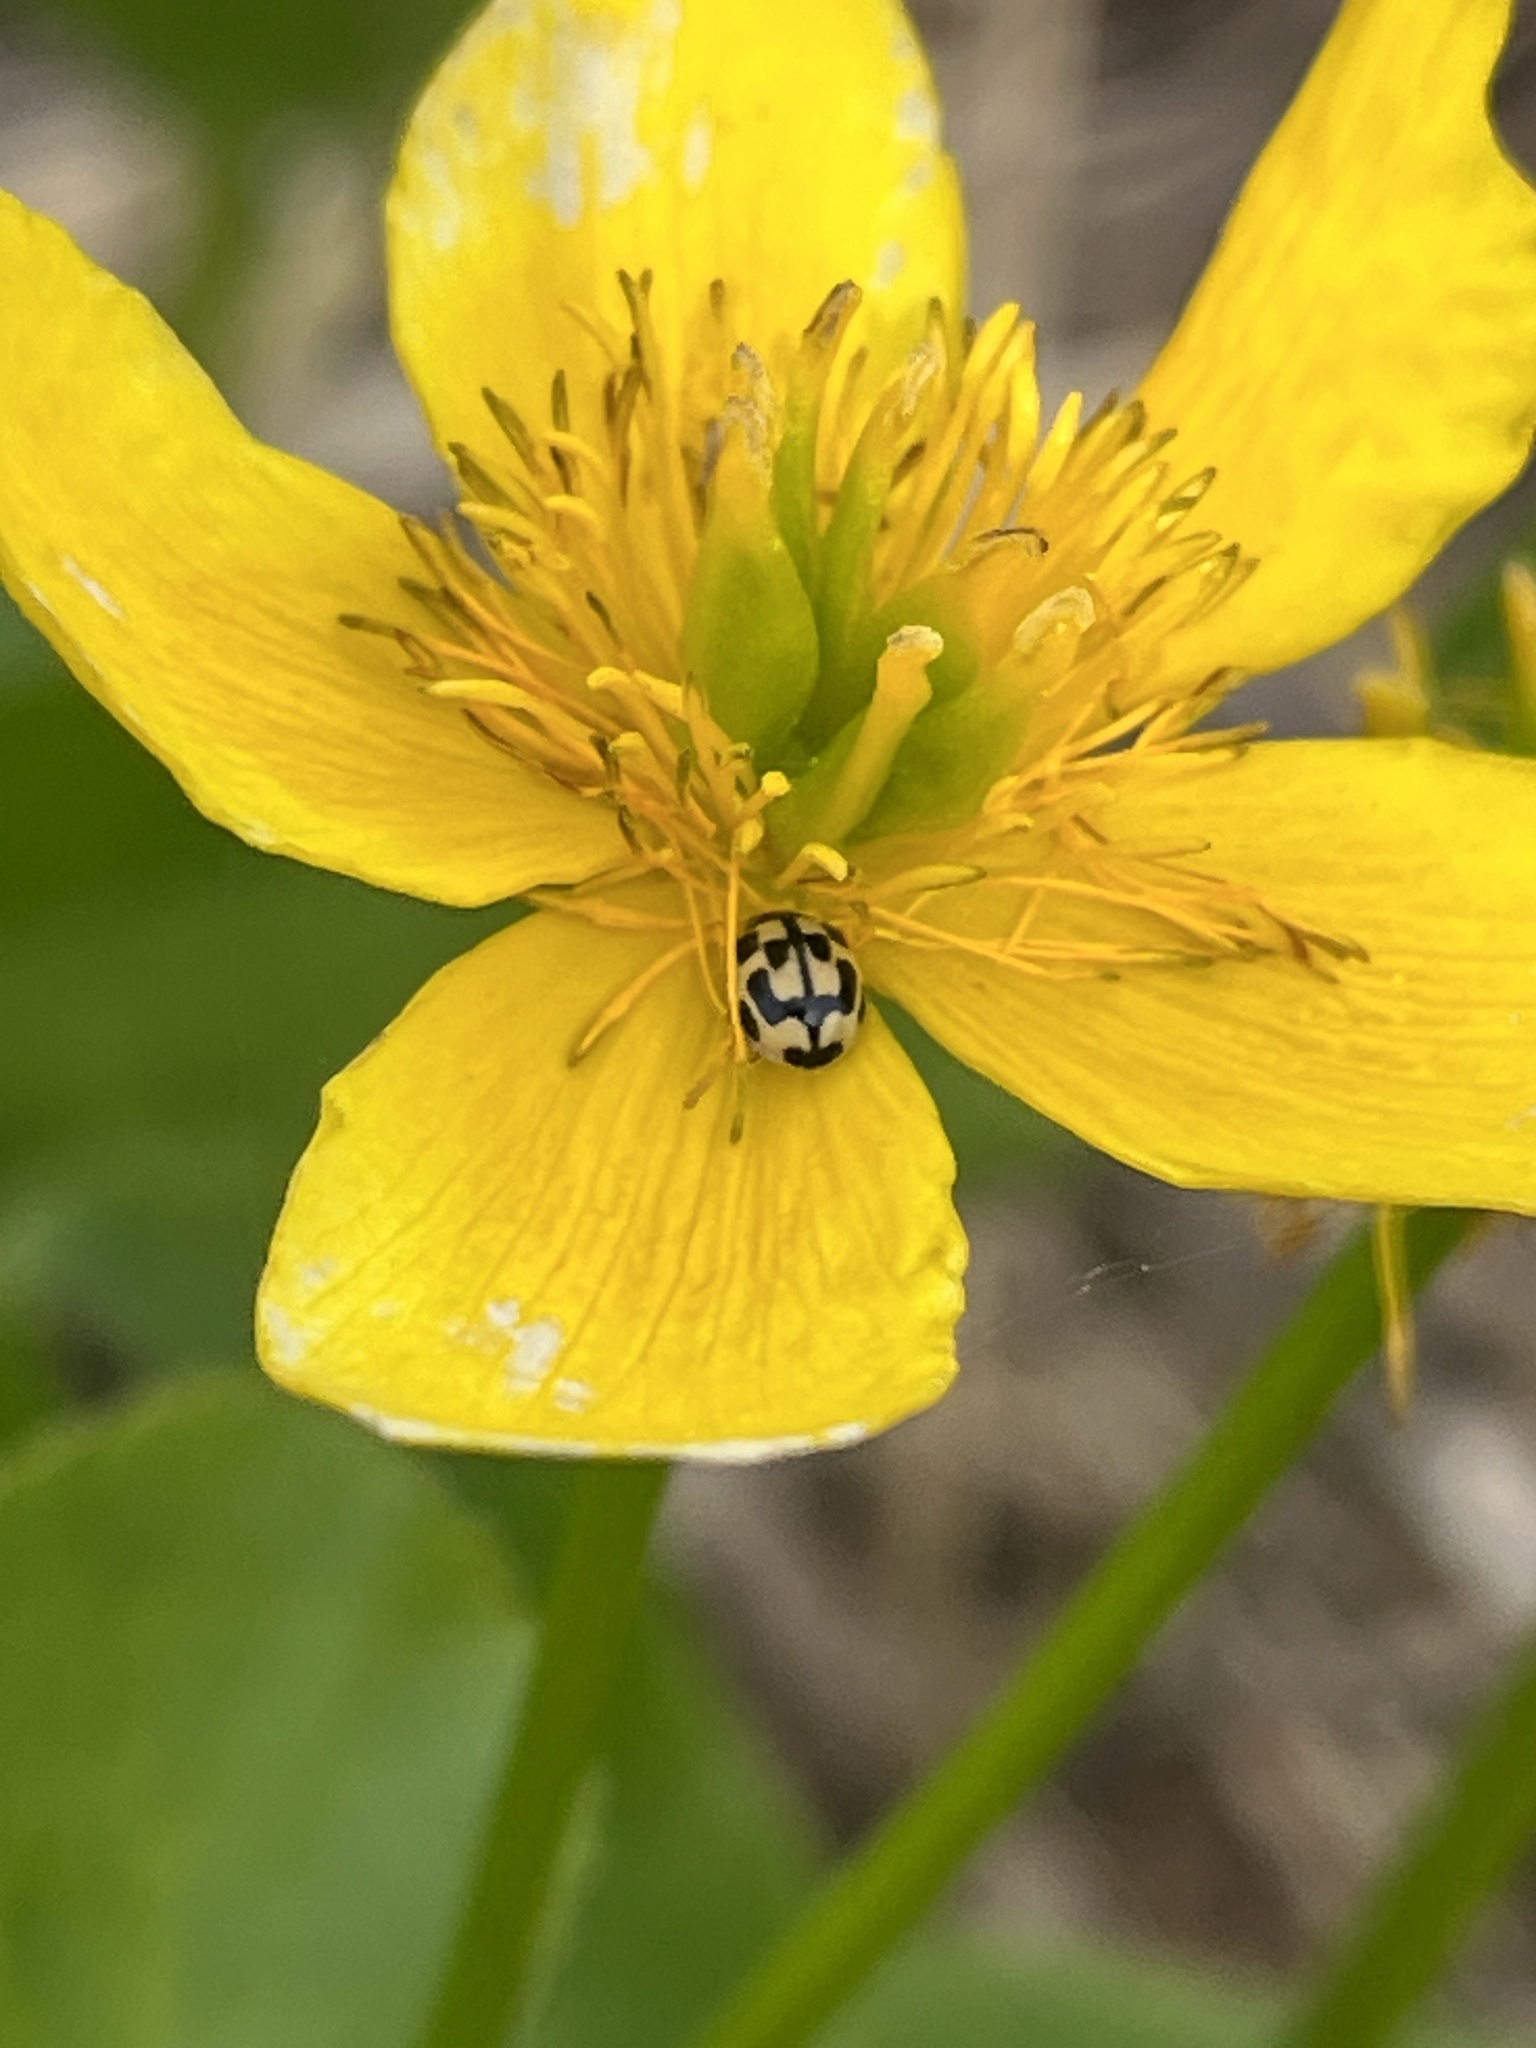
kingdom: Animalia
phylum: Arthropoda
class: Insecta
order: Coleoptera
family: Coccinellidae
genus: Propylaea
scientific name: Propylaea quatuordecimpunctata
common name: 14-spotted ladybird beetle
